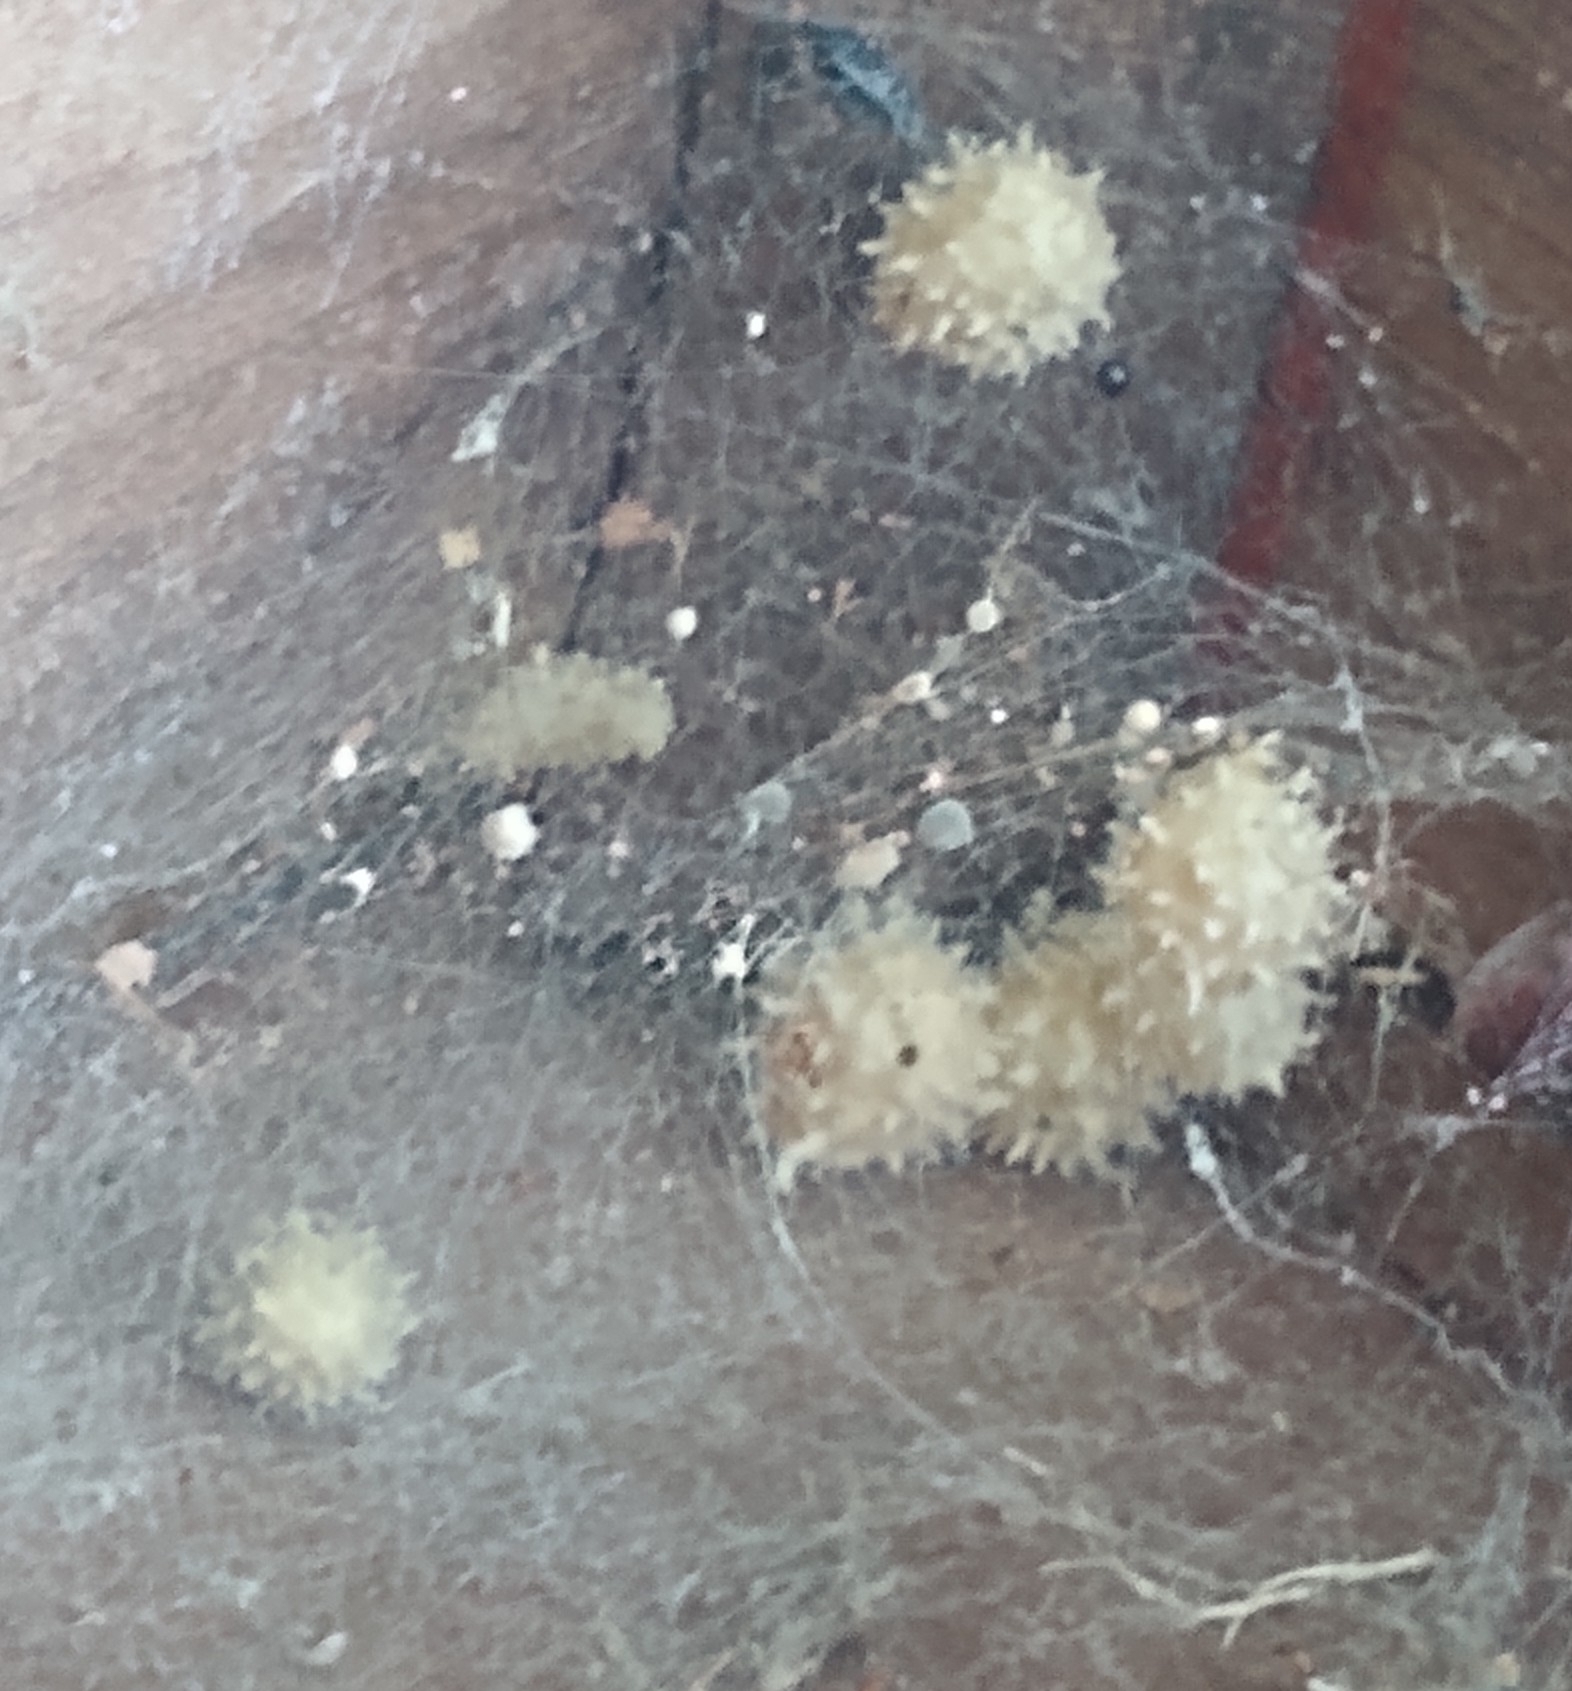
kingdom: Animalia
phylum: Arthropoda
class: Arachnida
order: Araneae
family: Theridiidae
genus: Latrodectus
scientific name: Latrodectus geometricus
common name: Brown widow spider
